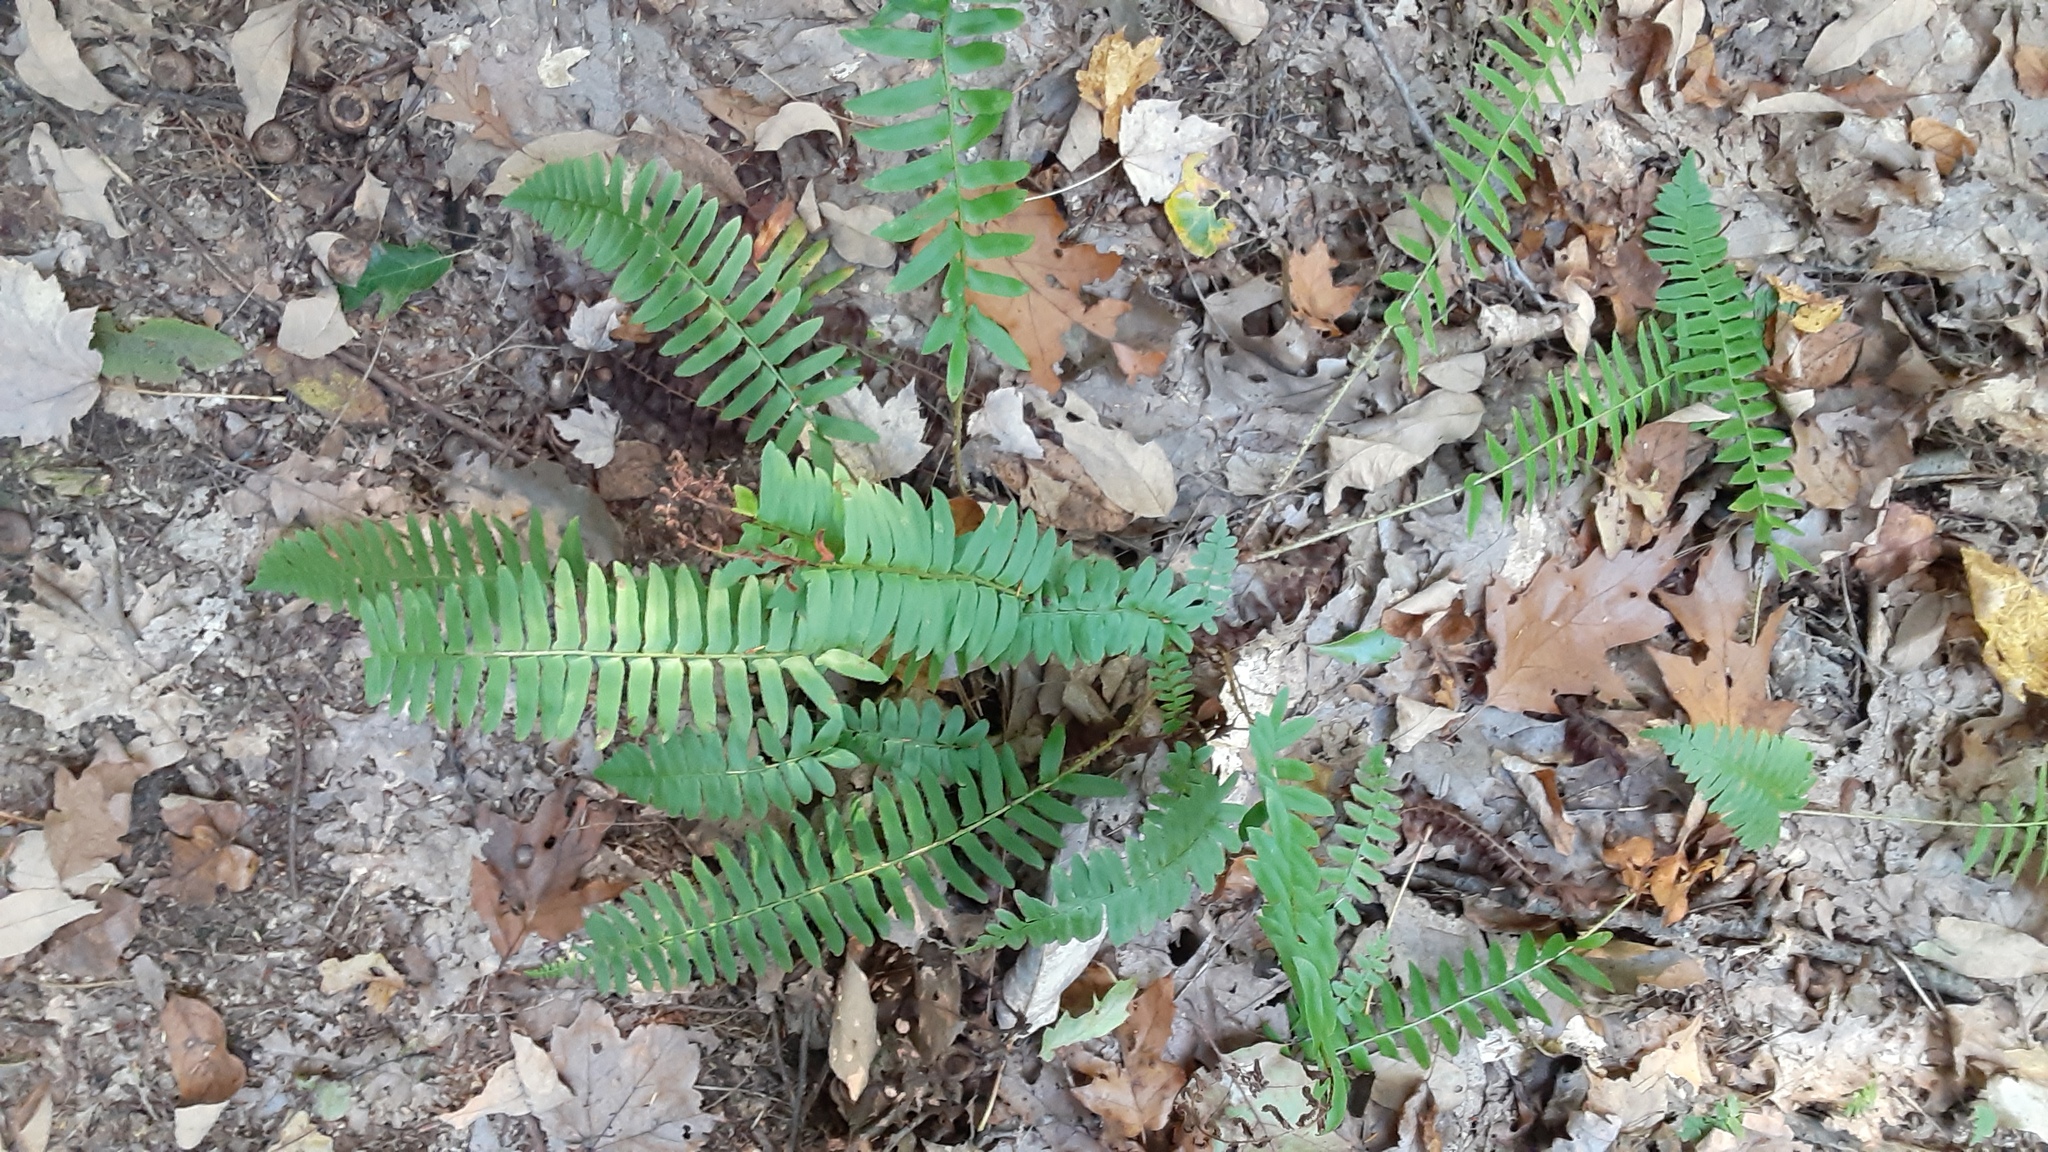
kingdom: Plantae
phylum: Tracheophyta
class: Polypodiopsida
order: Polypodiales
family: Dryopteridaceae
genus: Polystichum
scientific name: Polystichum acrostichoides
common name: Christmas fern
